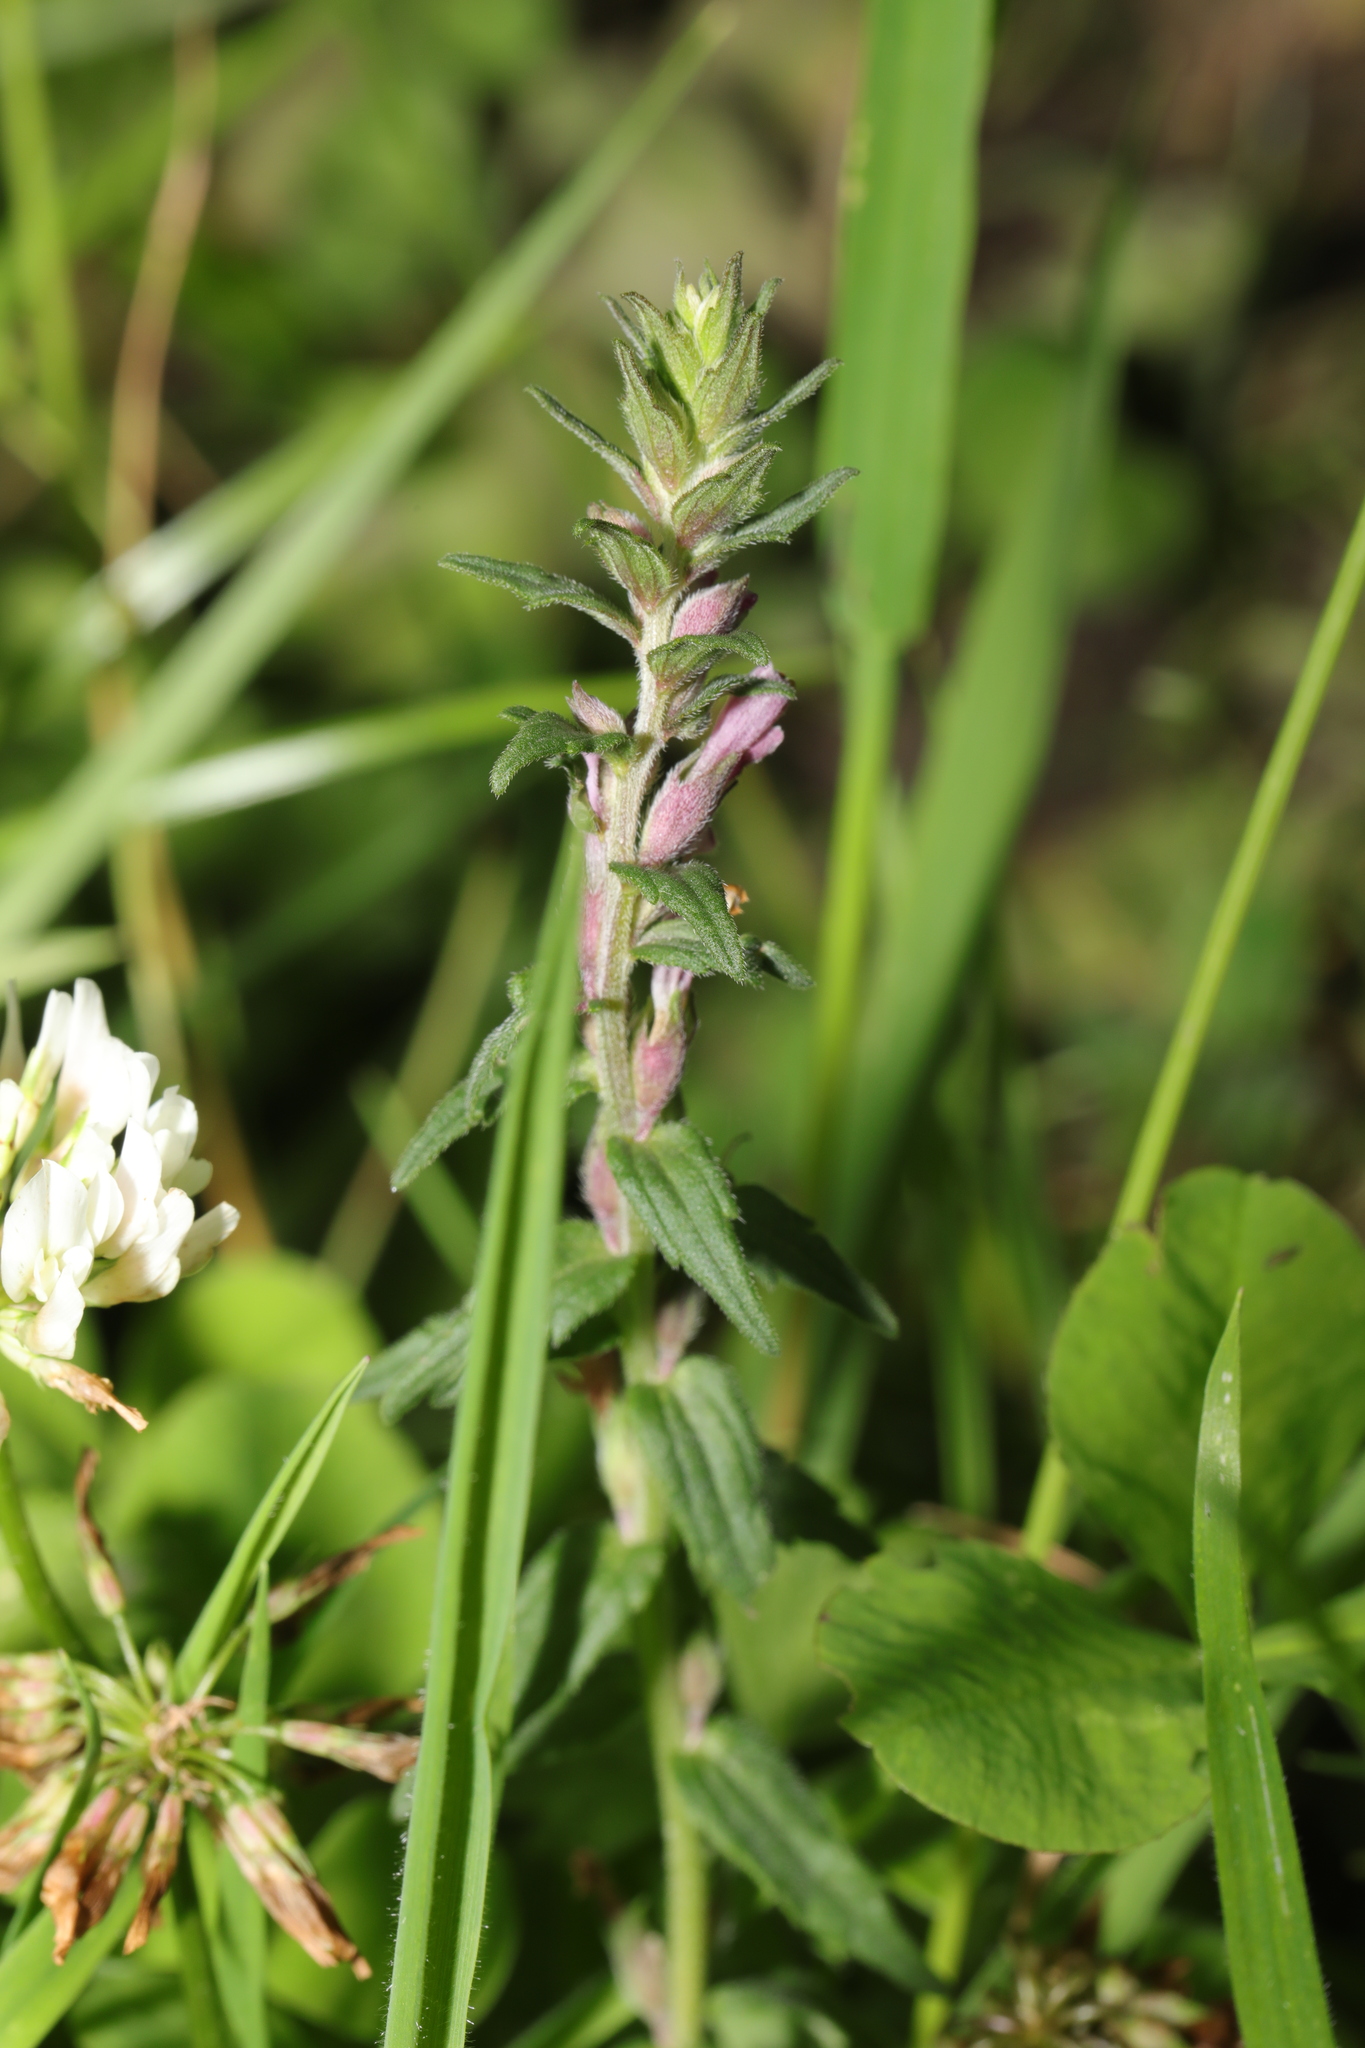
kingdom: Plantae
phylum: Tracheophyta
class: Magnoliopsida
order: Lamiales
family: Orobanchaceae
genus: Odontites
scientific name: Odontites vulgaris
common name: Broomrape
